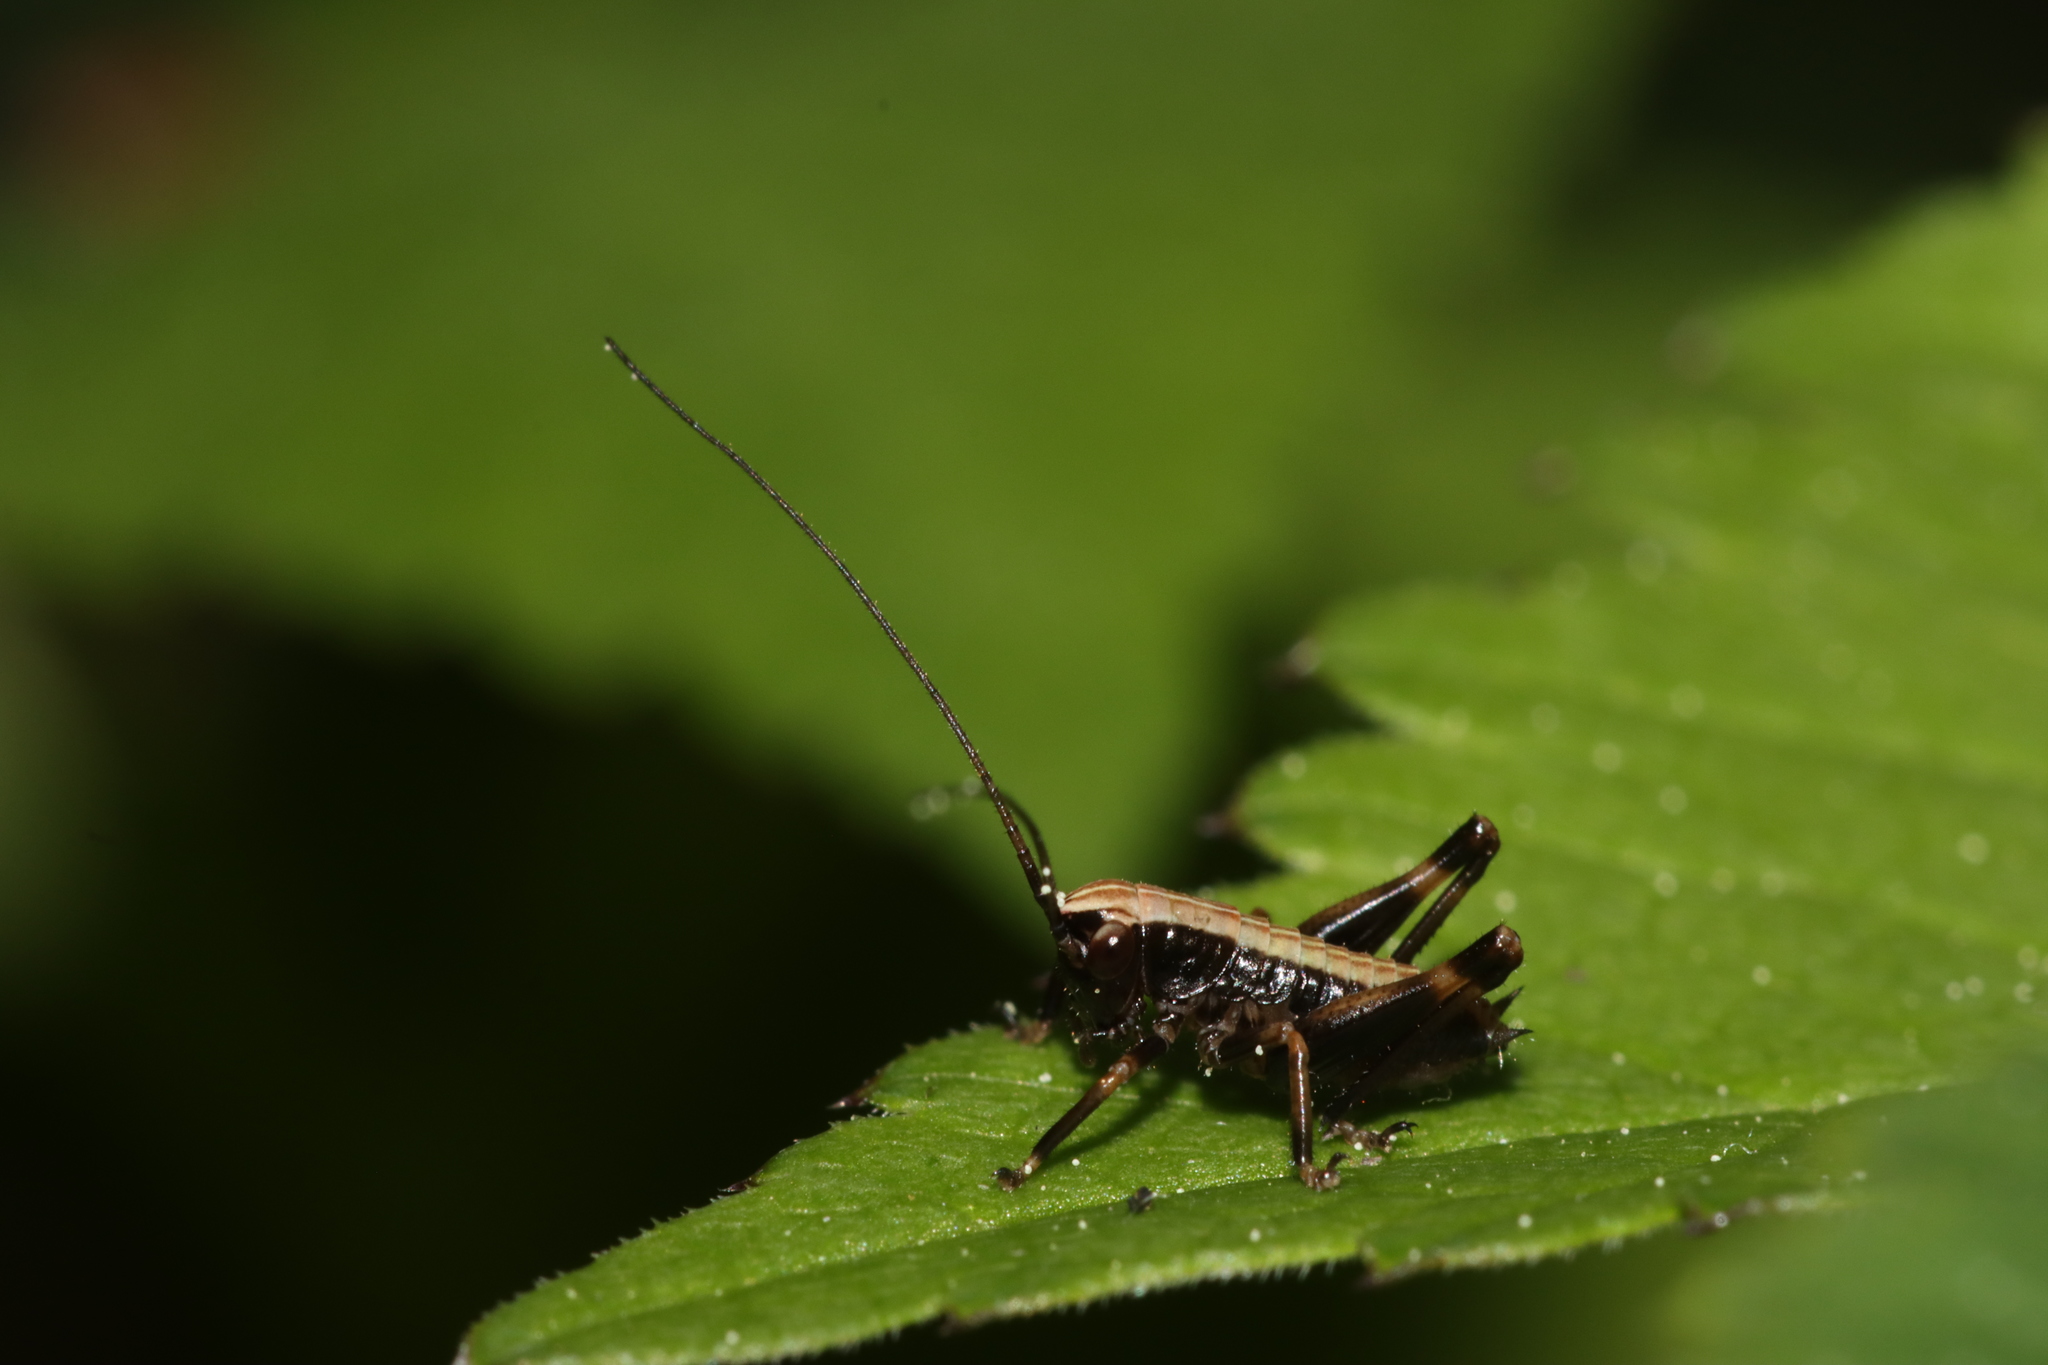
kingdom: Animalia
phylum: Arthropoda
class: Insecta
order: Orthoptera
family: Tettigoniidae
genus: Pholidoptera
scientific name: Pholidoptera griseoaptera
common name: Dark bush-cricket
